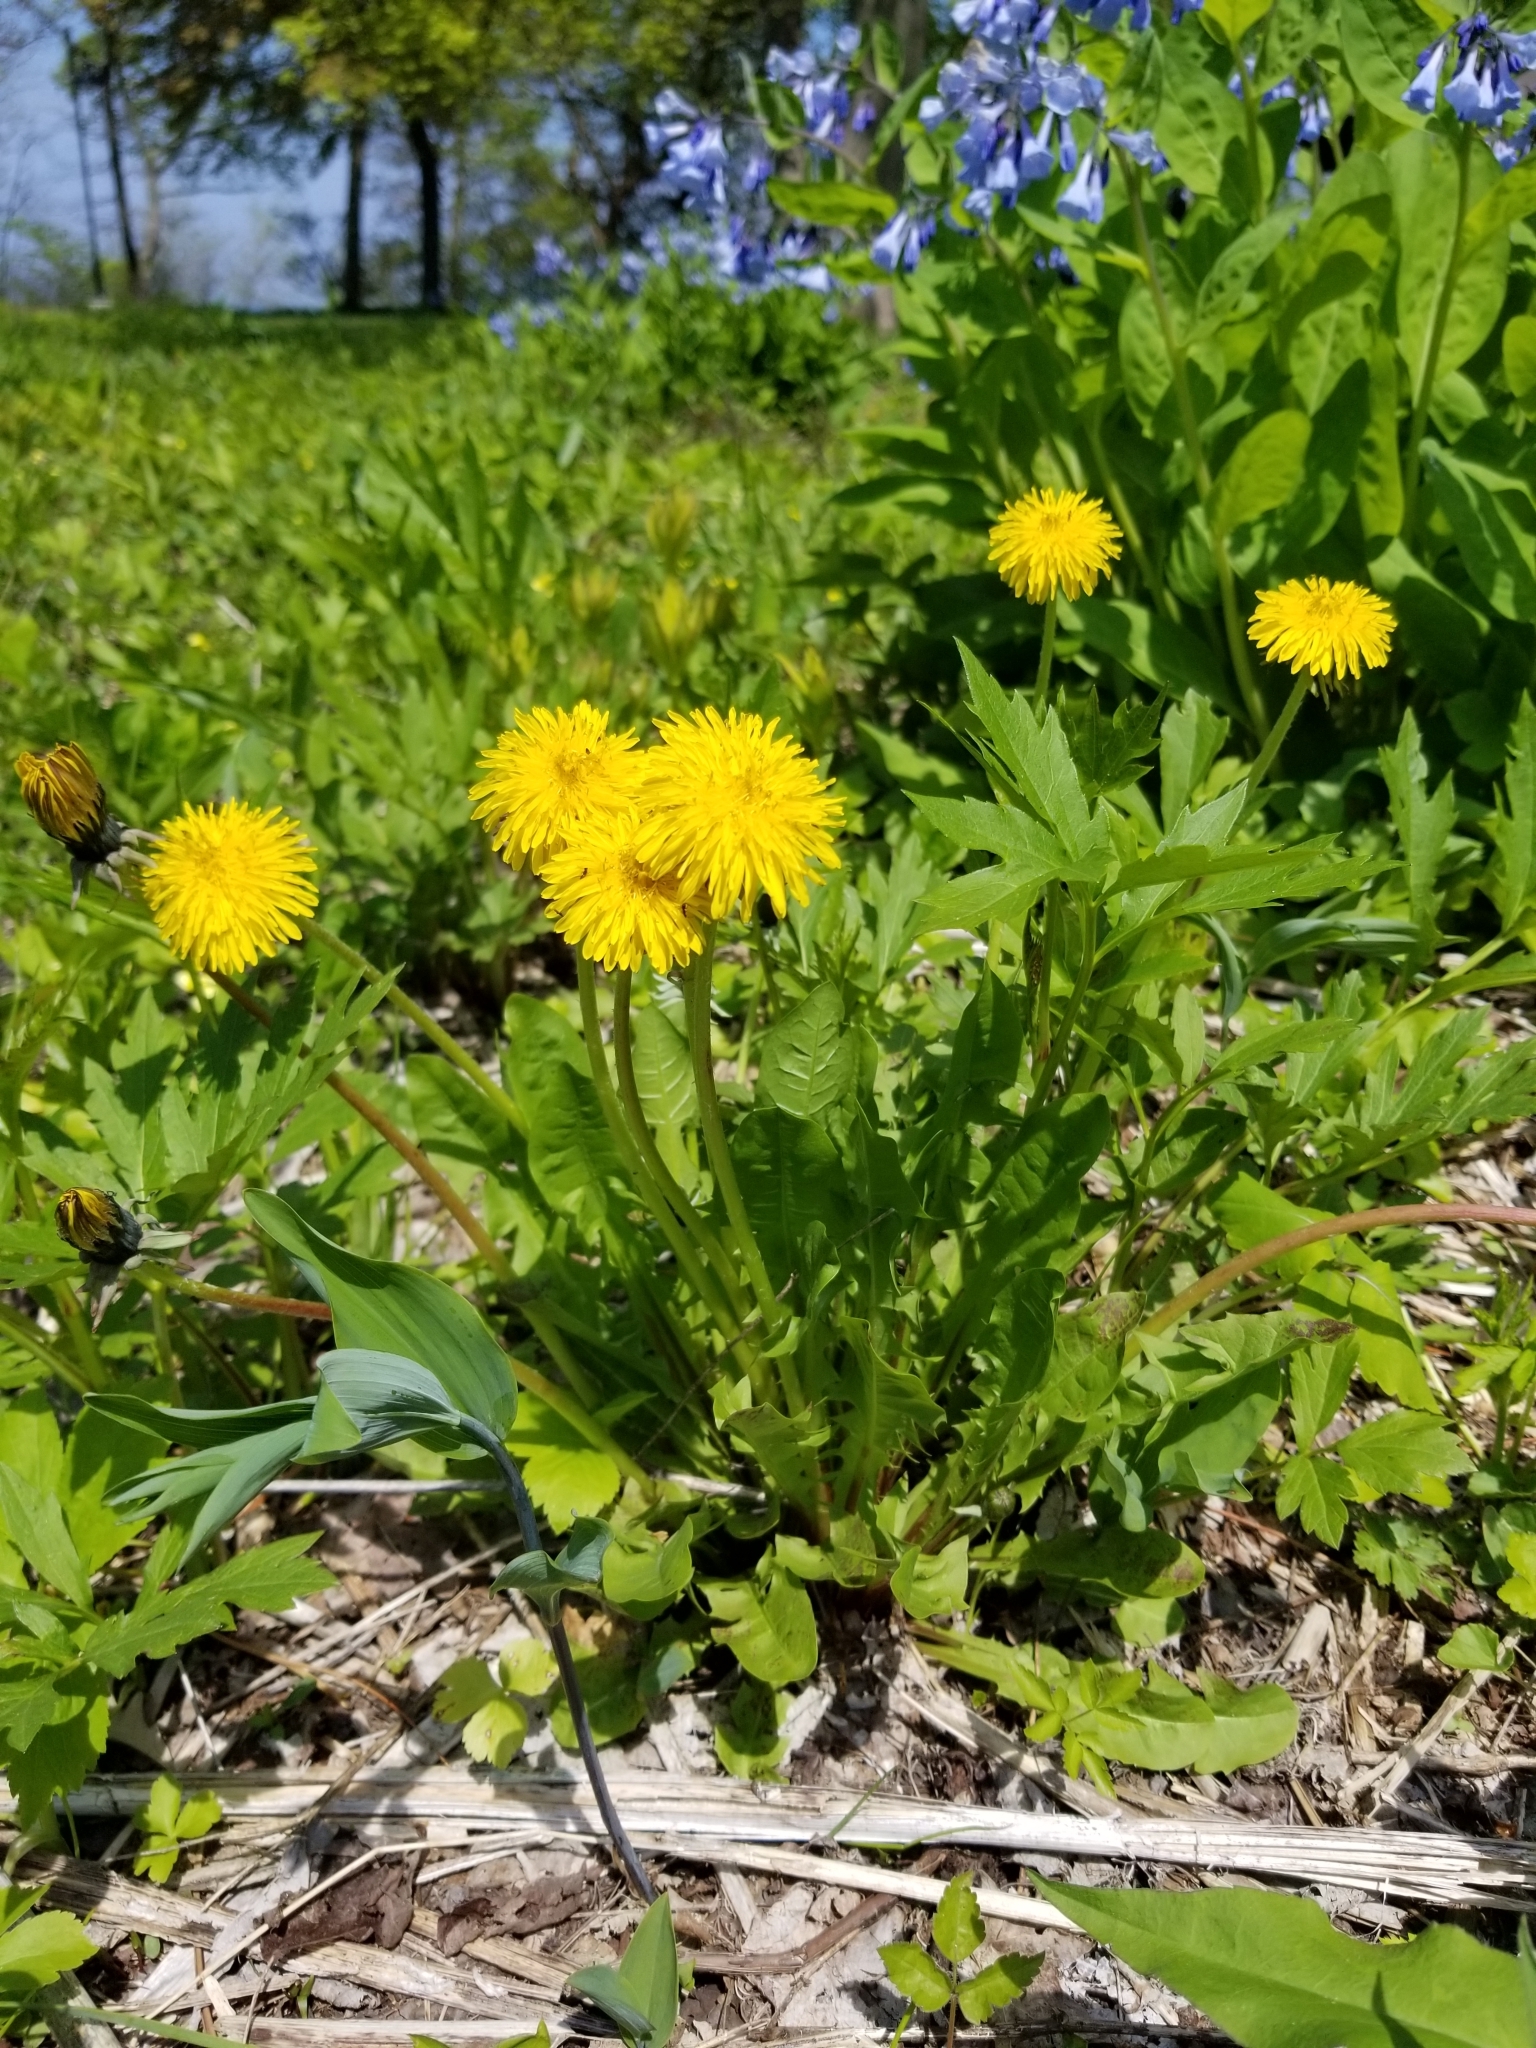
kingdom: Plantae
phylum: Tracheophyta
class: Magnoliopsida
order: Asterales
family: Asteraceae
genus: Taraxacum
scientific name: Taraxacum officinale
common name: Common dandelion
